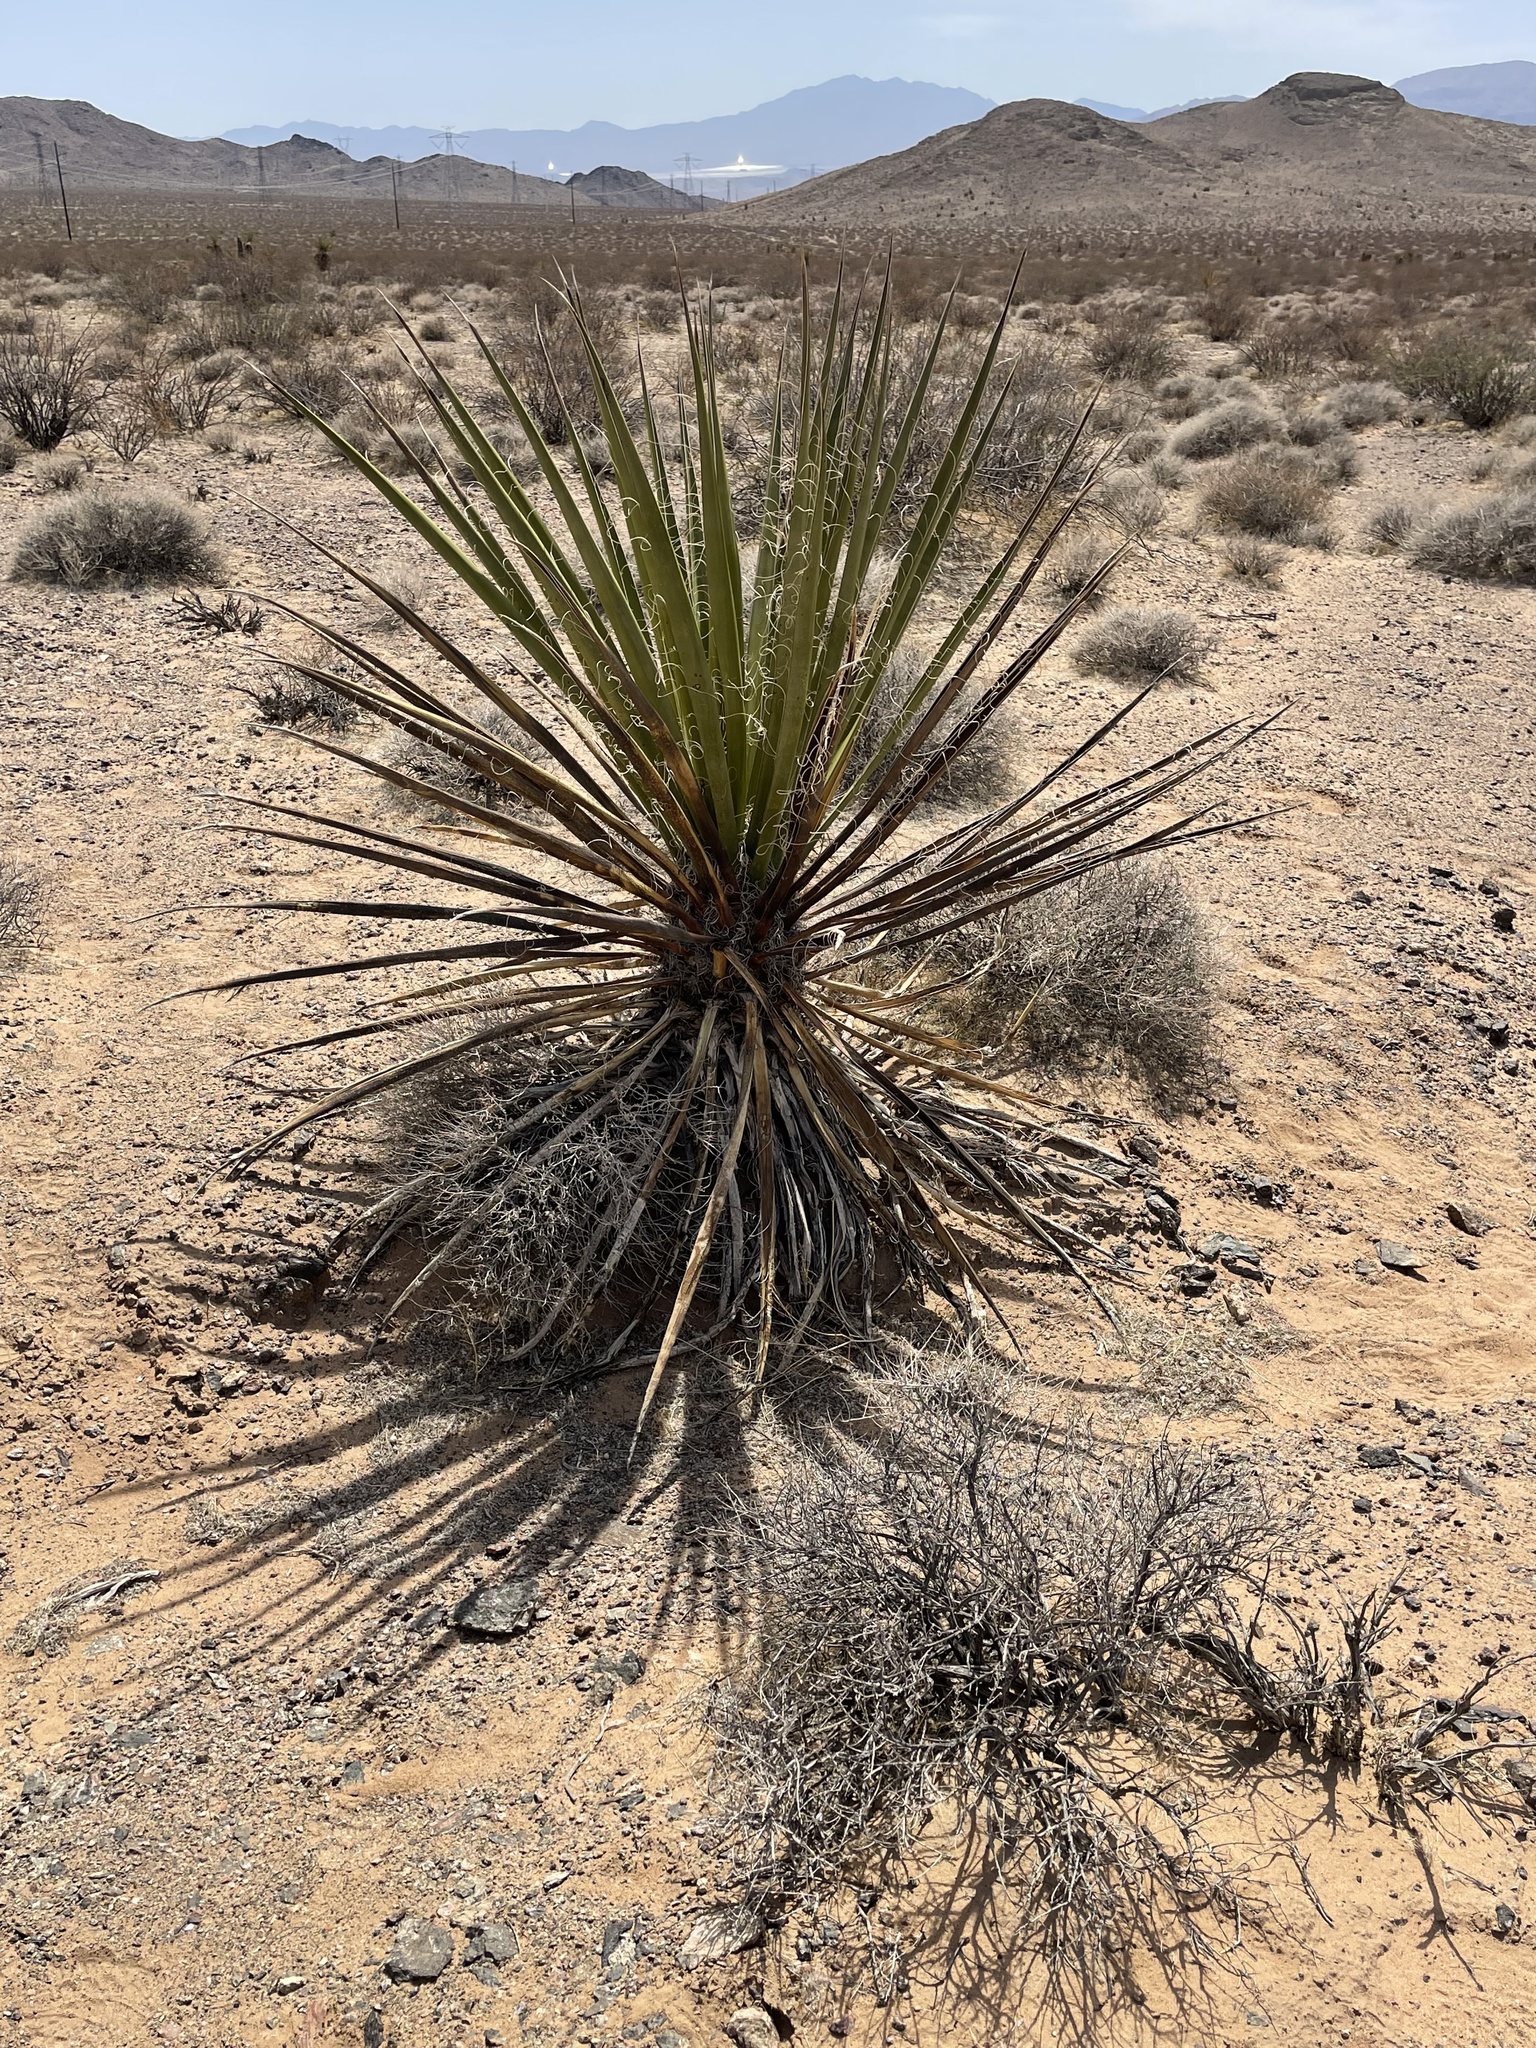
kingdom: Plantae
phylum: Tracheophyta
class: Liliopsida
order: Asparagales
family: Asparagaceae
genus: Yucca
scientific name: Yucca schidigera
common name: Mojave yucca
